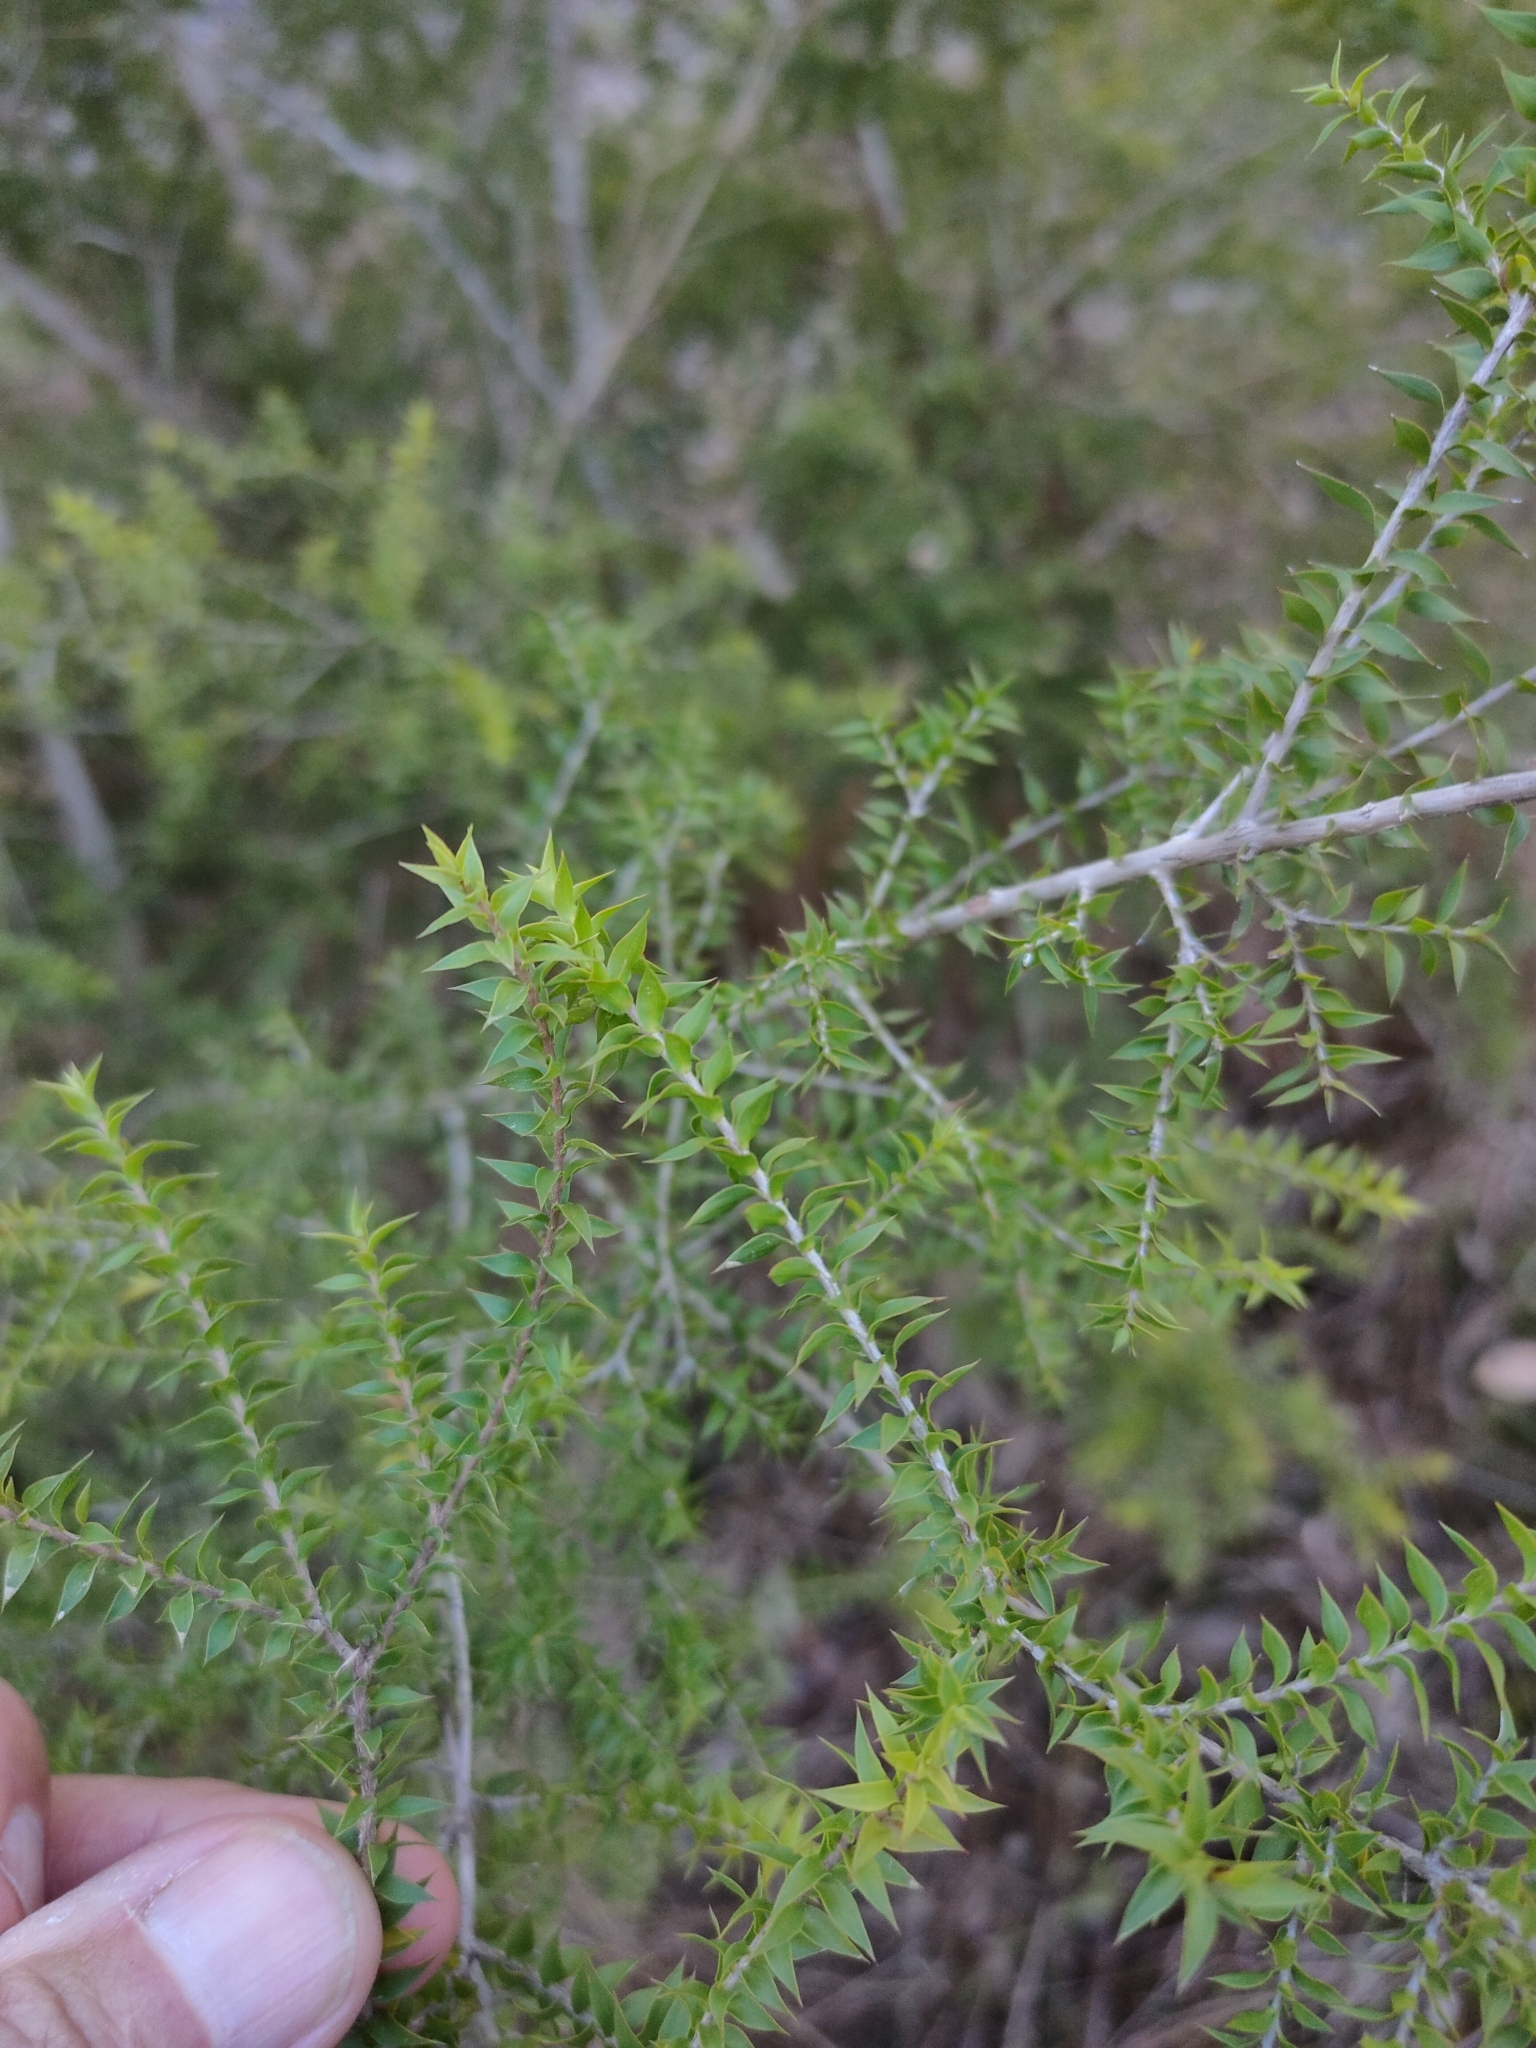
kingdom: Plantae
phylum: Tracheophyta
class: Magnoliopsida
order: Myrtales
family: Myrtaceae
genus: Melaleuca
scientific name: Melaleuca styphelioides
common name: Prickly paperbark
